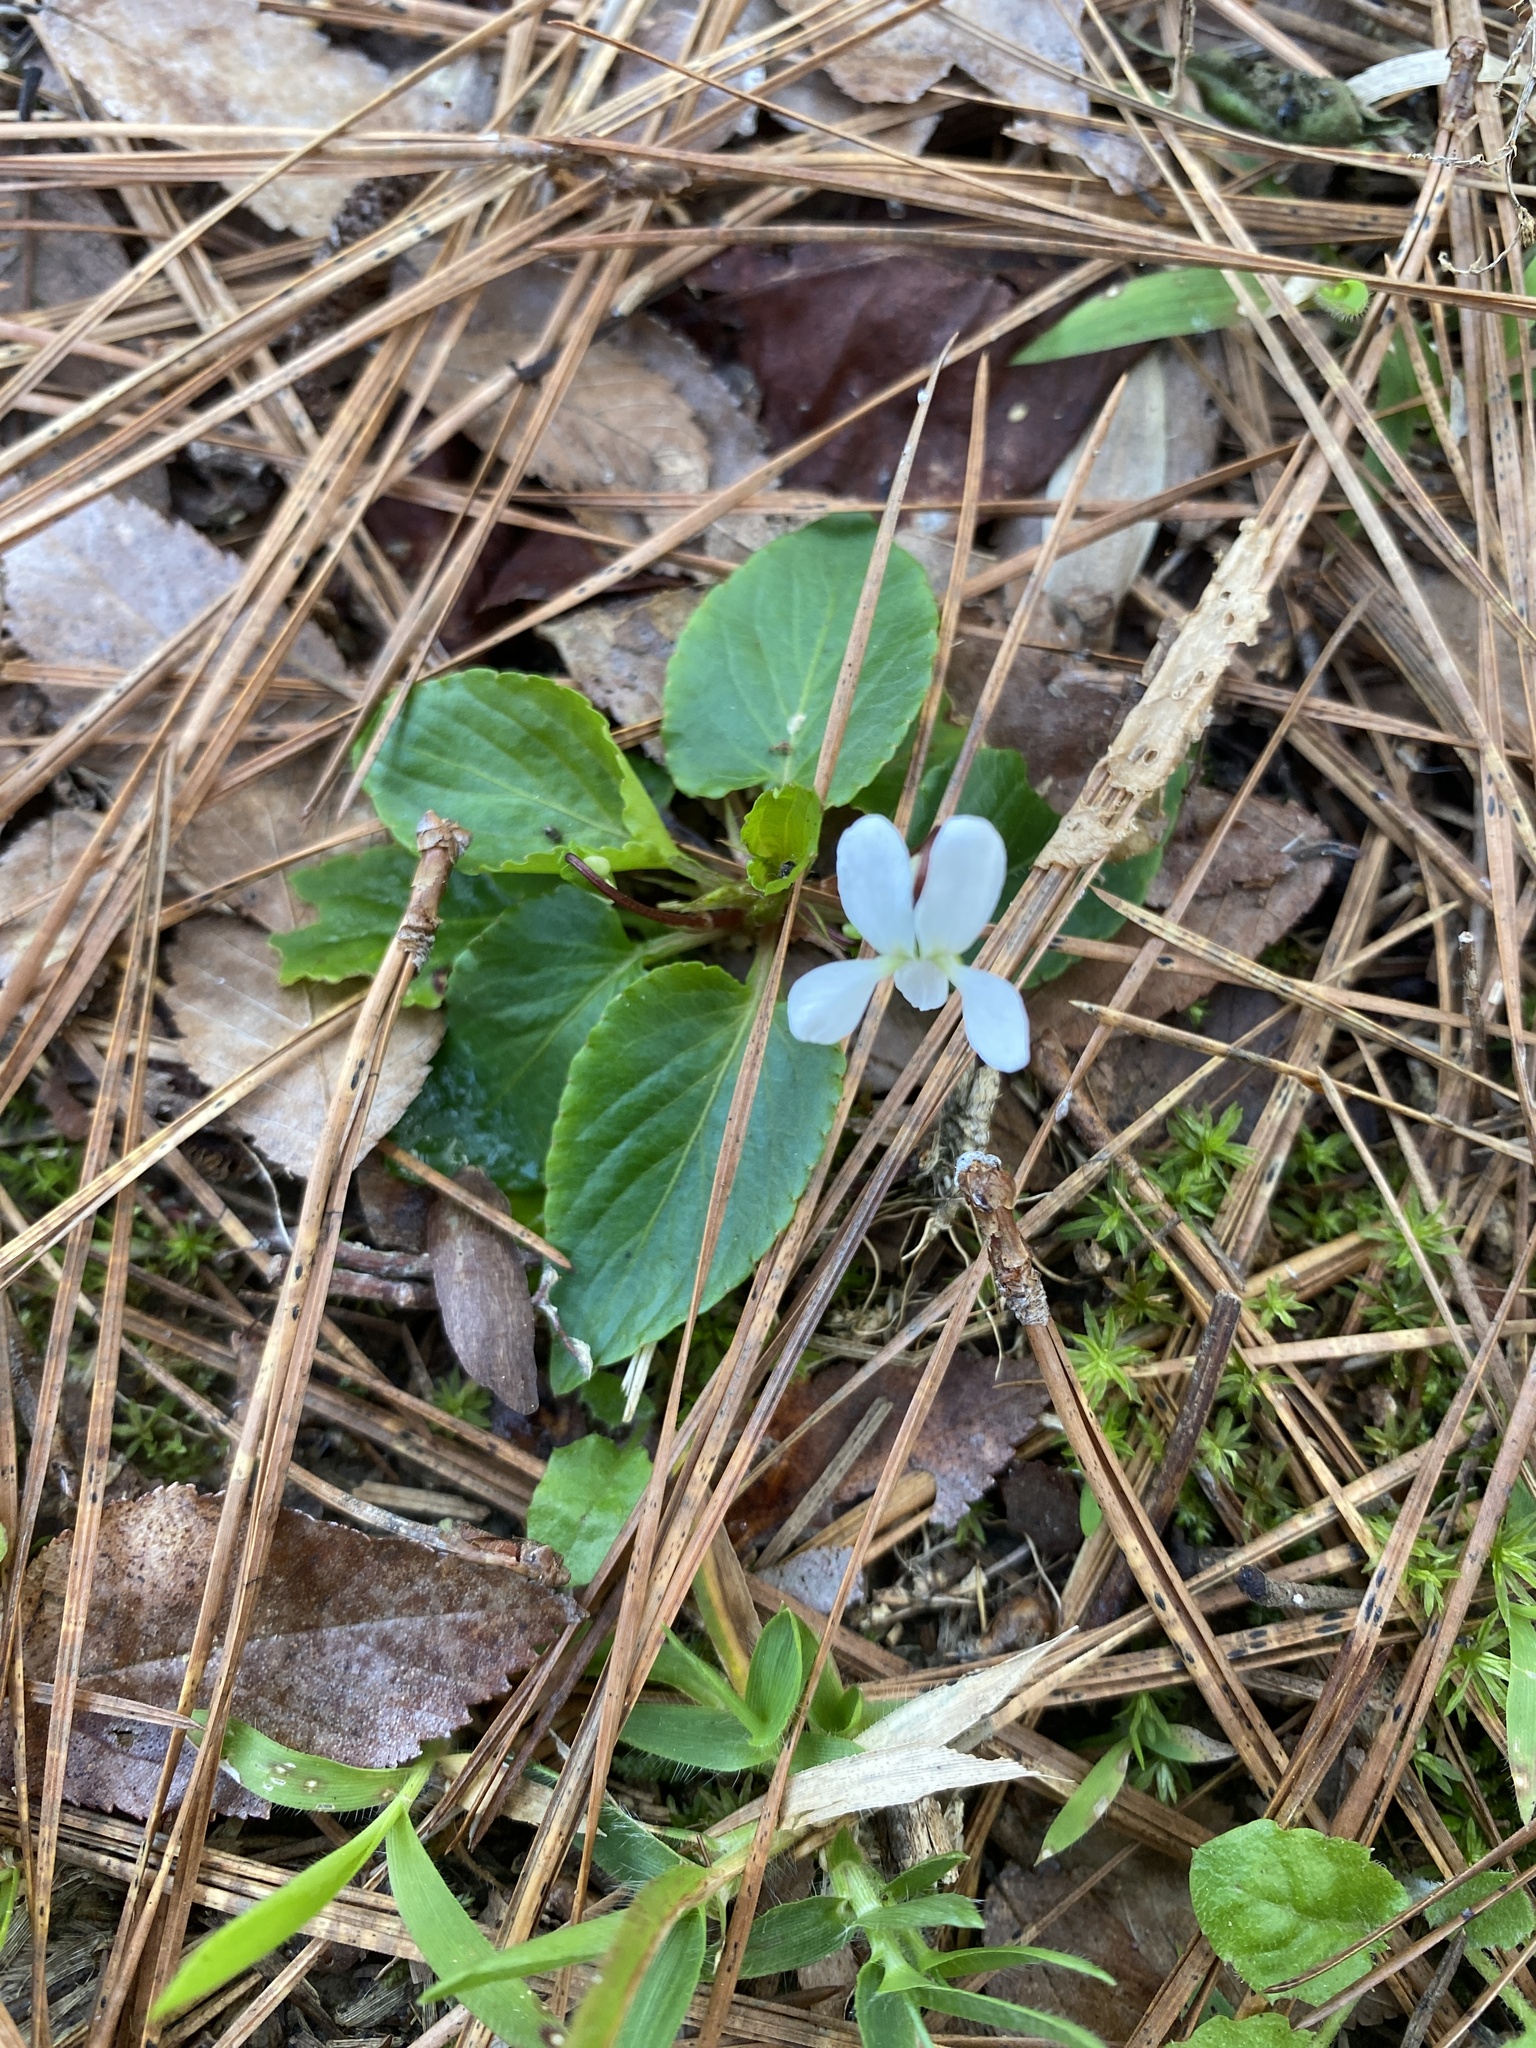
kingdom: Plantae
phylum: Tracheophyta
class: Magnoliopsida
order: Malpighiales
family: Violaceae
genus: Viola
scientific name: Viola primulifolia
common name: Primrose-leaf violet
